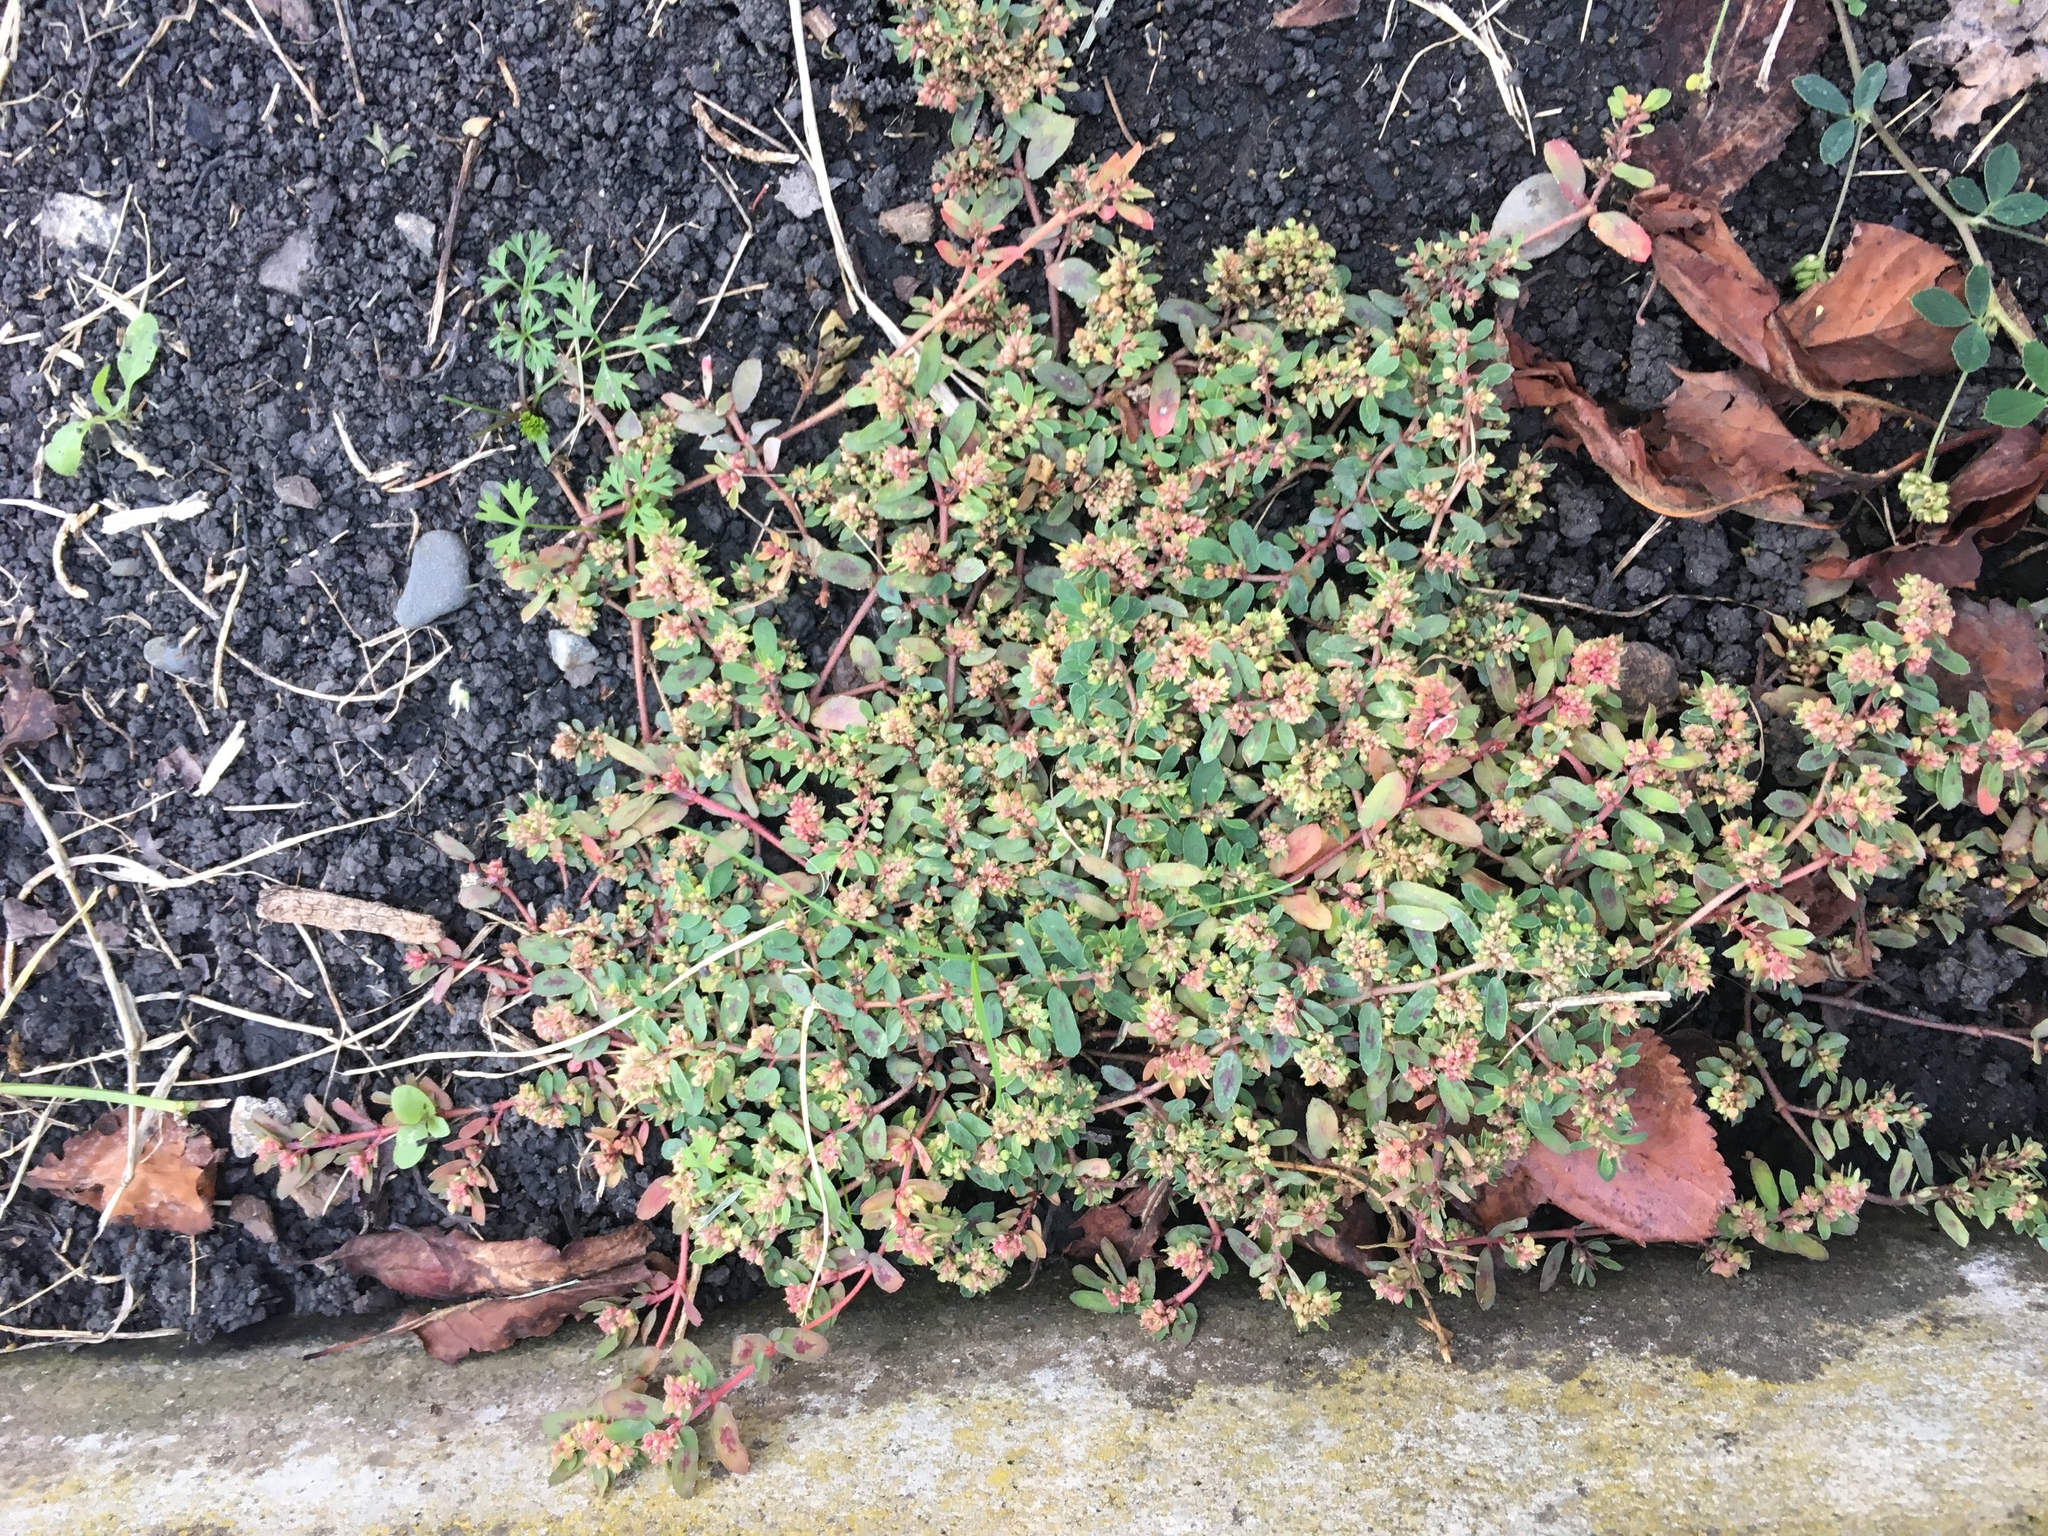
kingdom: Plantae
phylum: Tracheophyta
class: Magnoliopsida
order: Malpighiales
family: Euphorbiaceae
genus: Euphorbia
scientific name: Euphorbia maculata
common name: Spotted spurge
